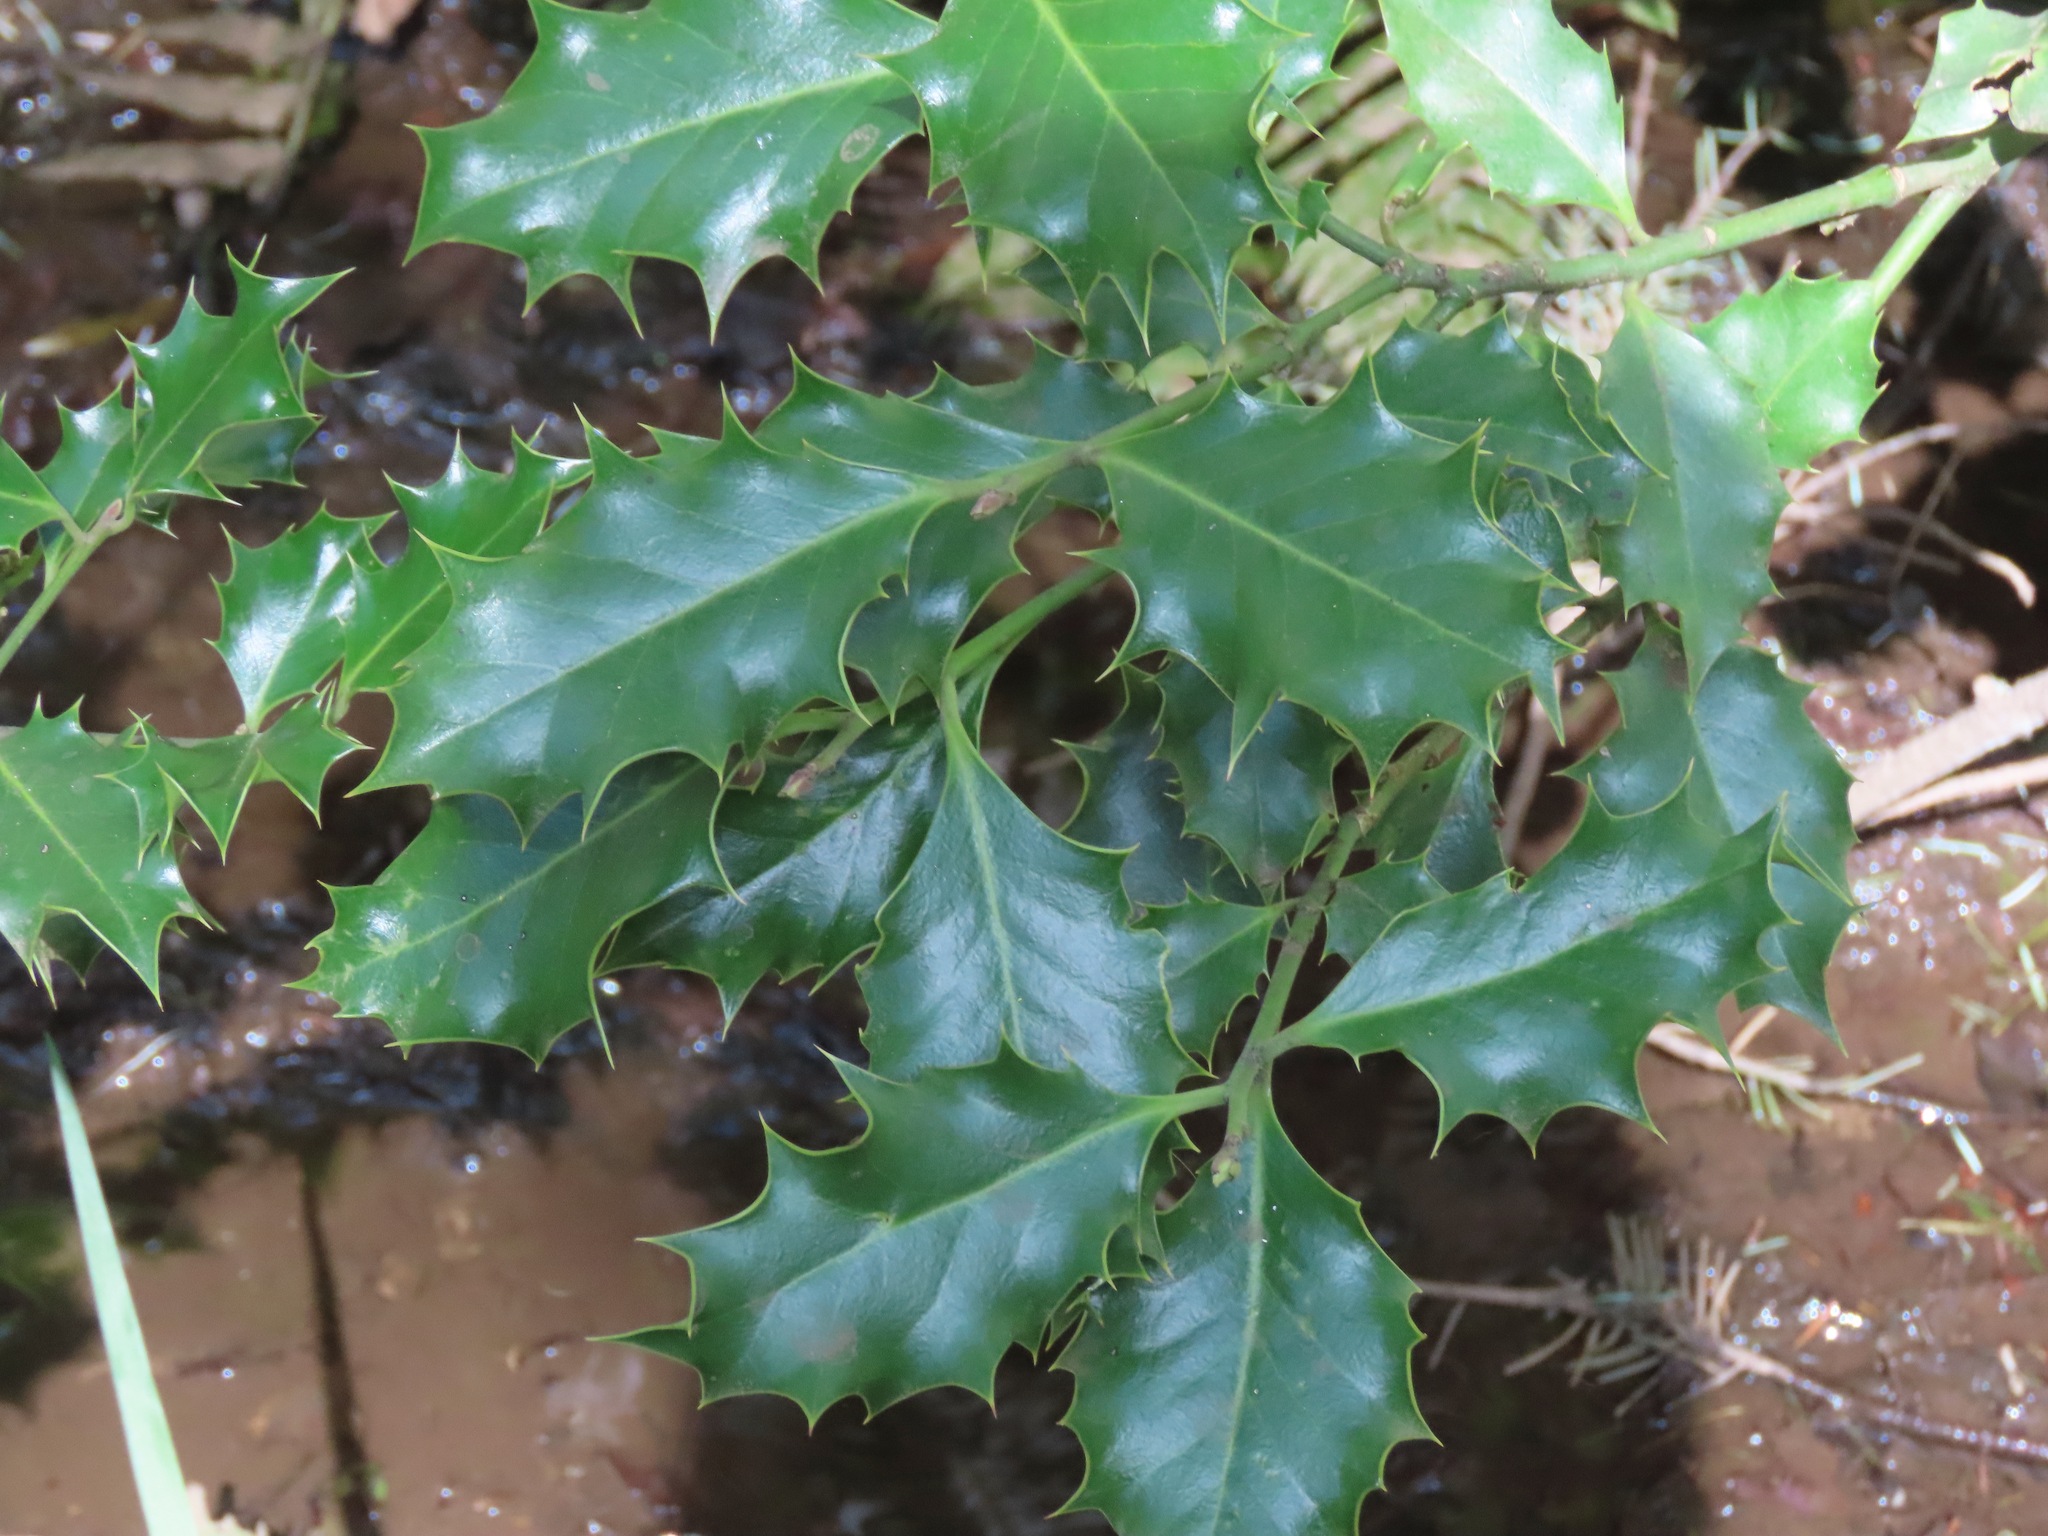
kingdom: Plantae
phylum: Tracheophyta
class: Magnoliopsida
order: Aquifoliales
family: Aquifoliaceae
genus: Ilex
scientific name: Ilex aquifolium
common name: English holly
